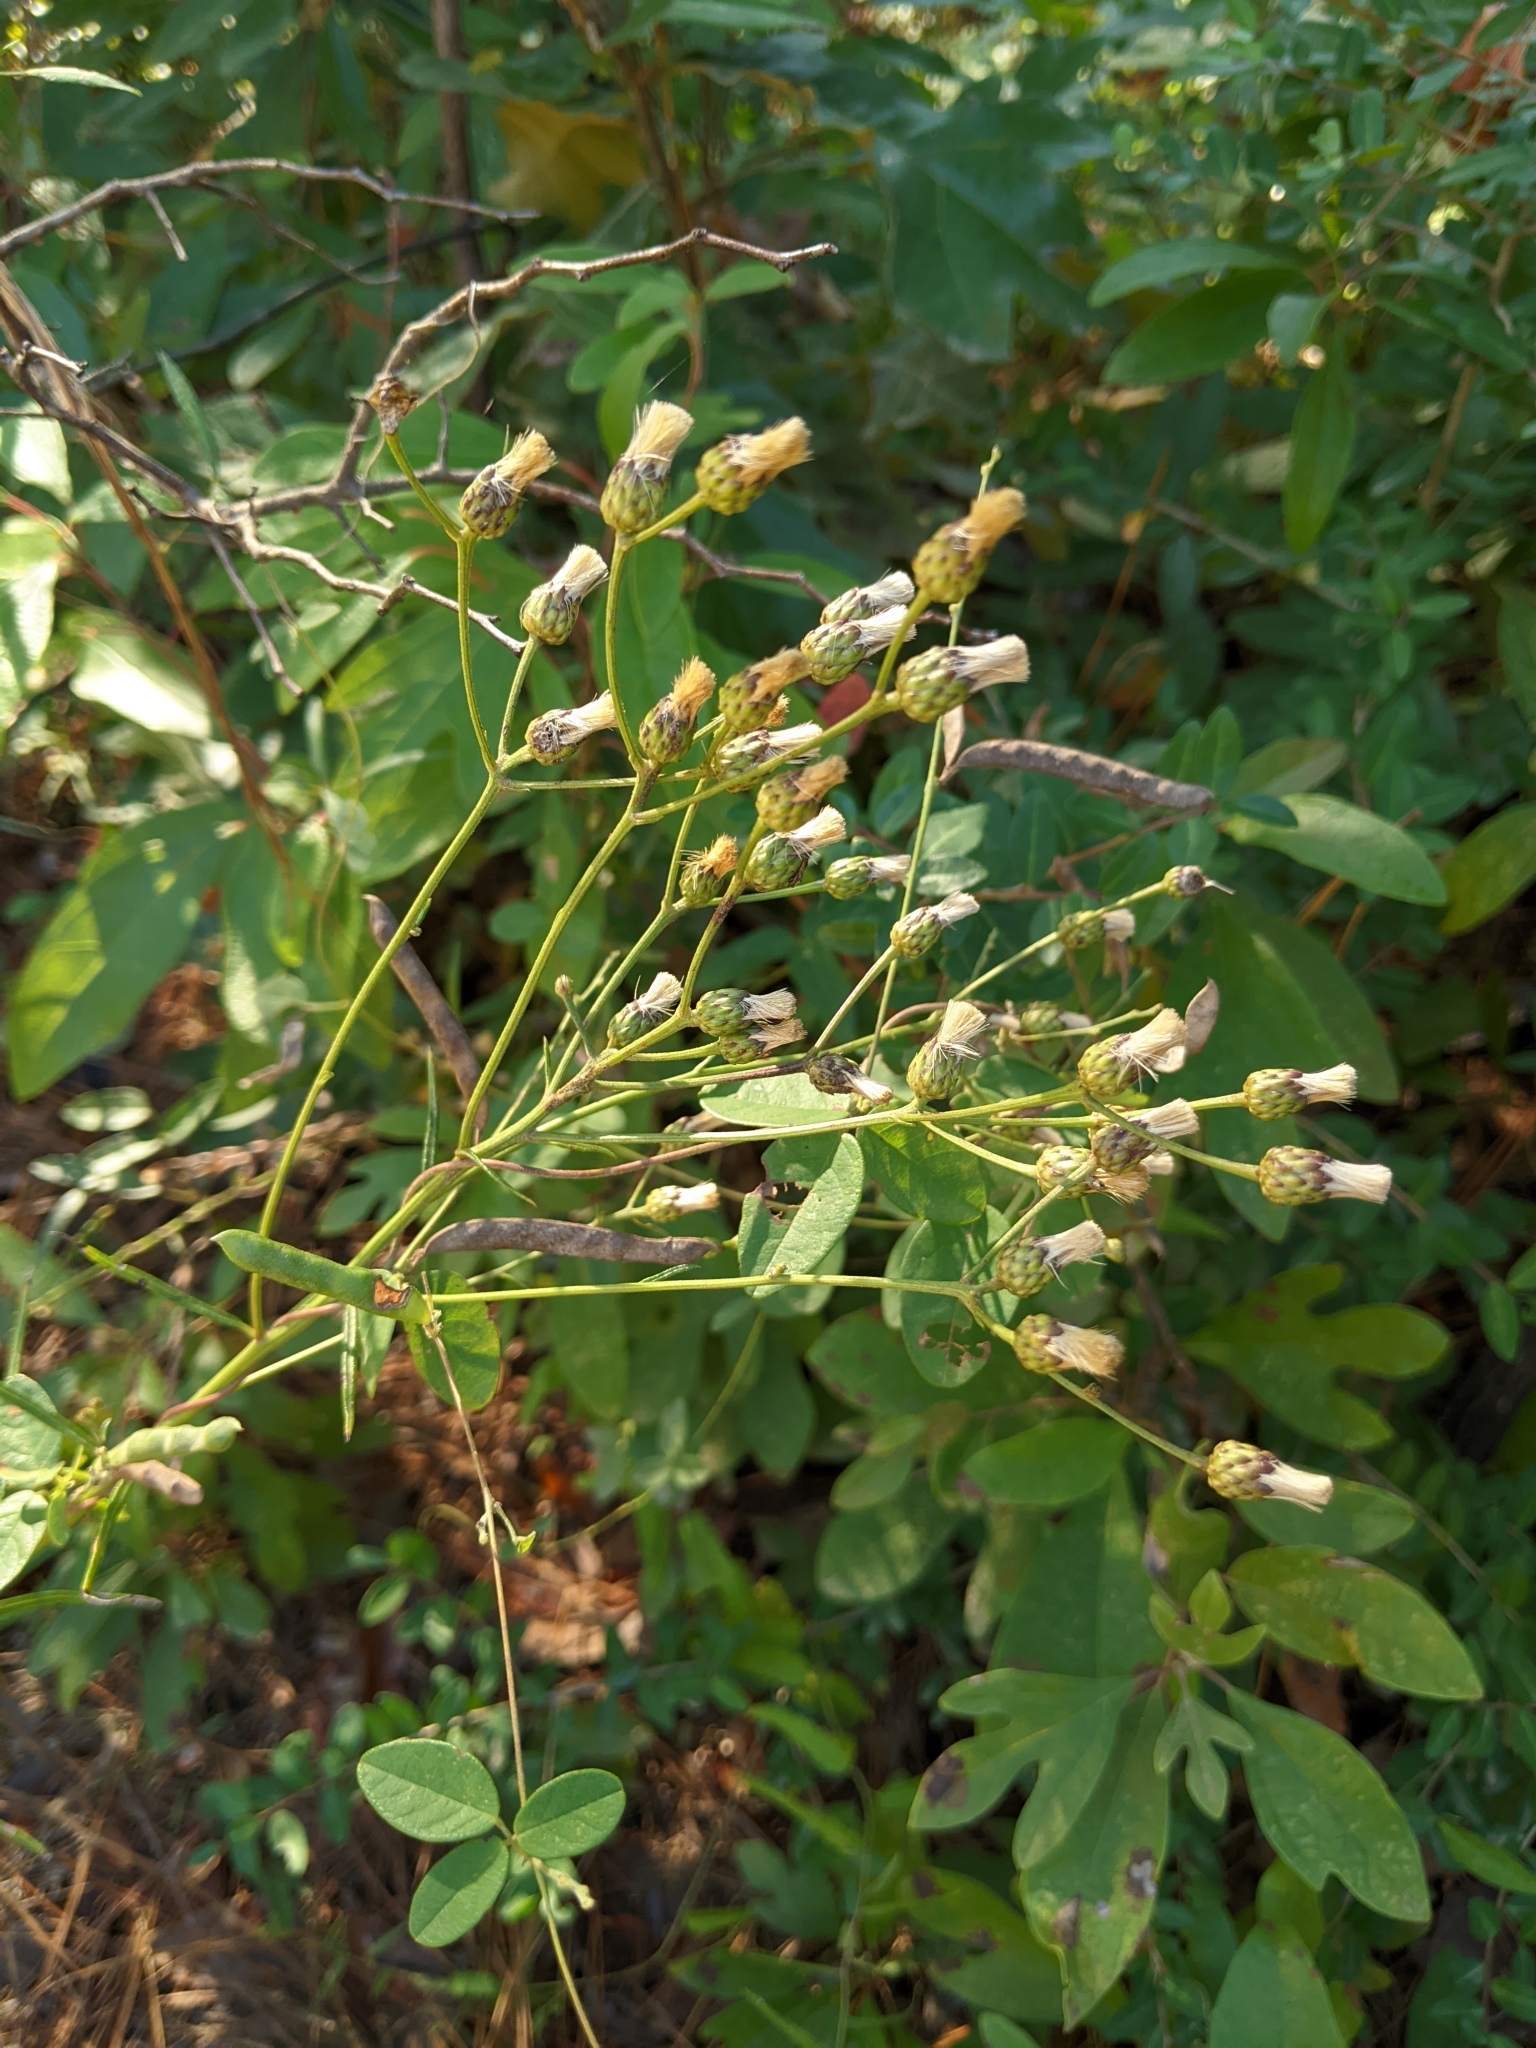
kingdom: Plantae
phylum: Tracheophyta
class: Magnoliopsida
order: Asterales
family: Asteraceae
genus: Vernonia
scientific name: Vernonia texana
